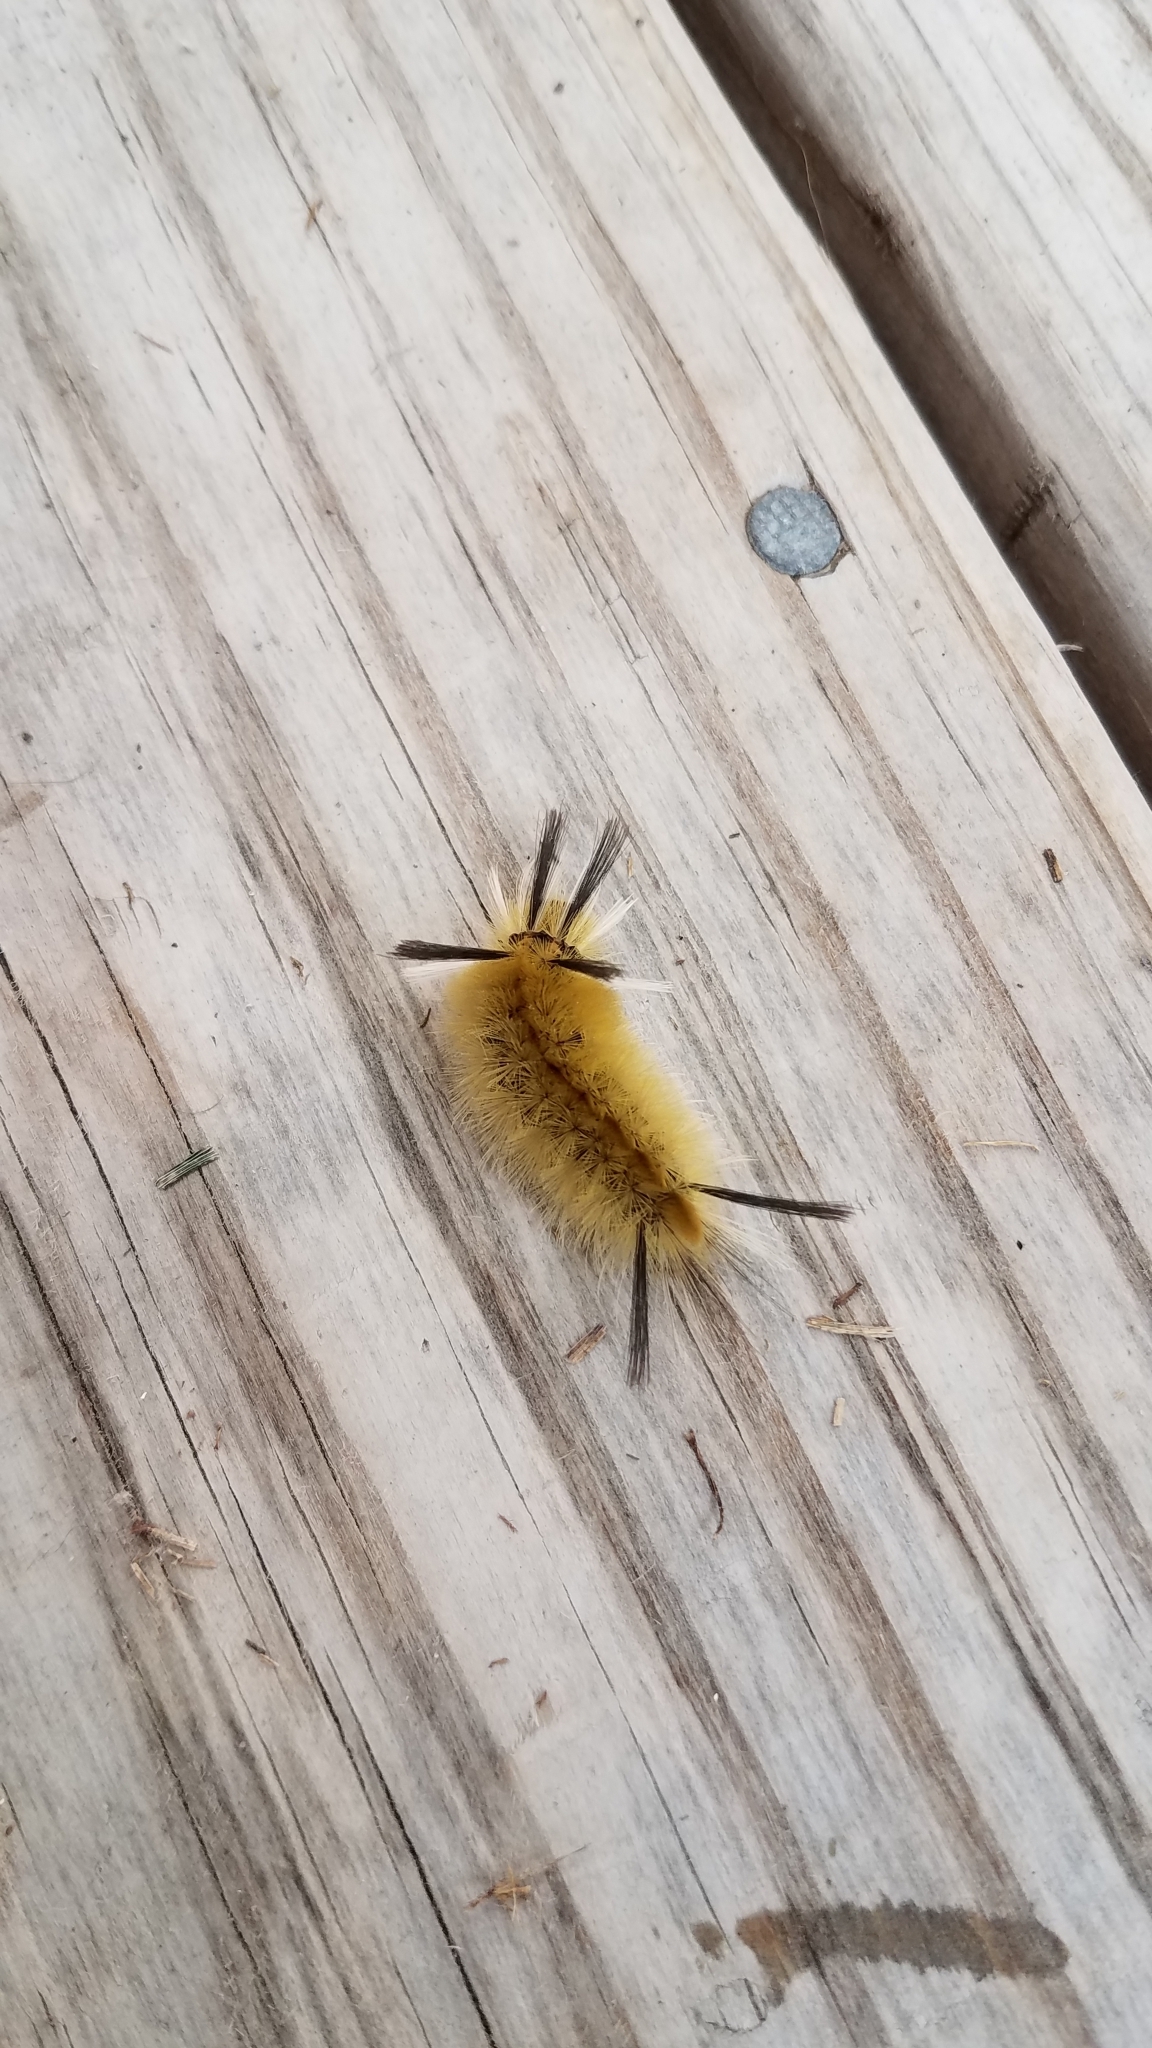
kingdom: Animalia
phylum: Arthropoda
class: Insecta
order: Lepidoptera
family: Erebidae
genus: Halysidota
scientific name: Halysidota tessellaris
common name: Banded tussock moth
